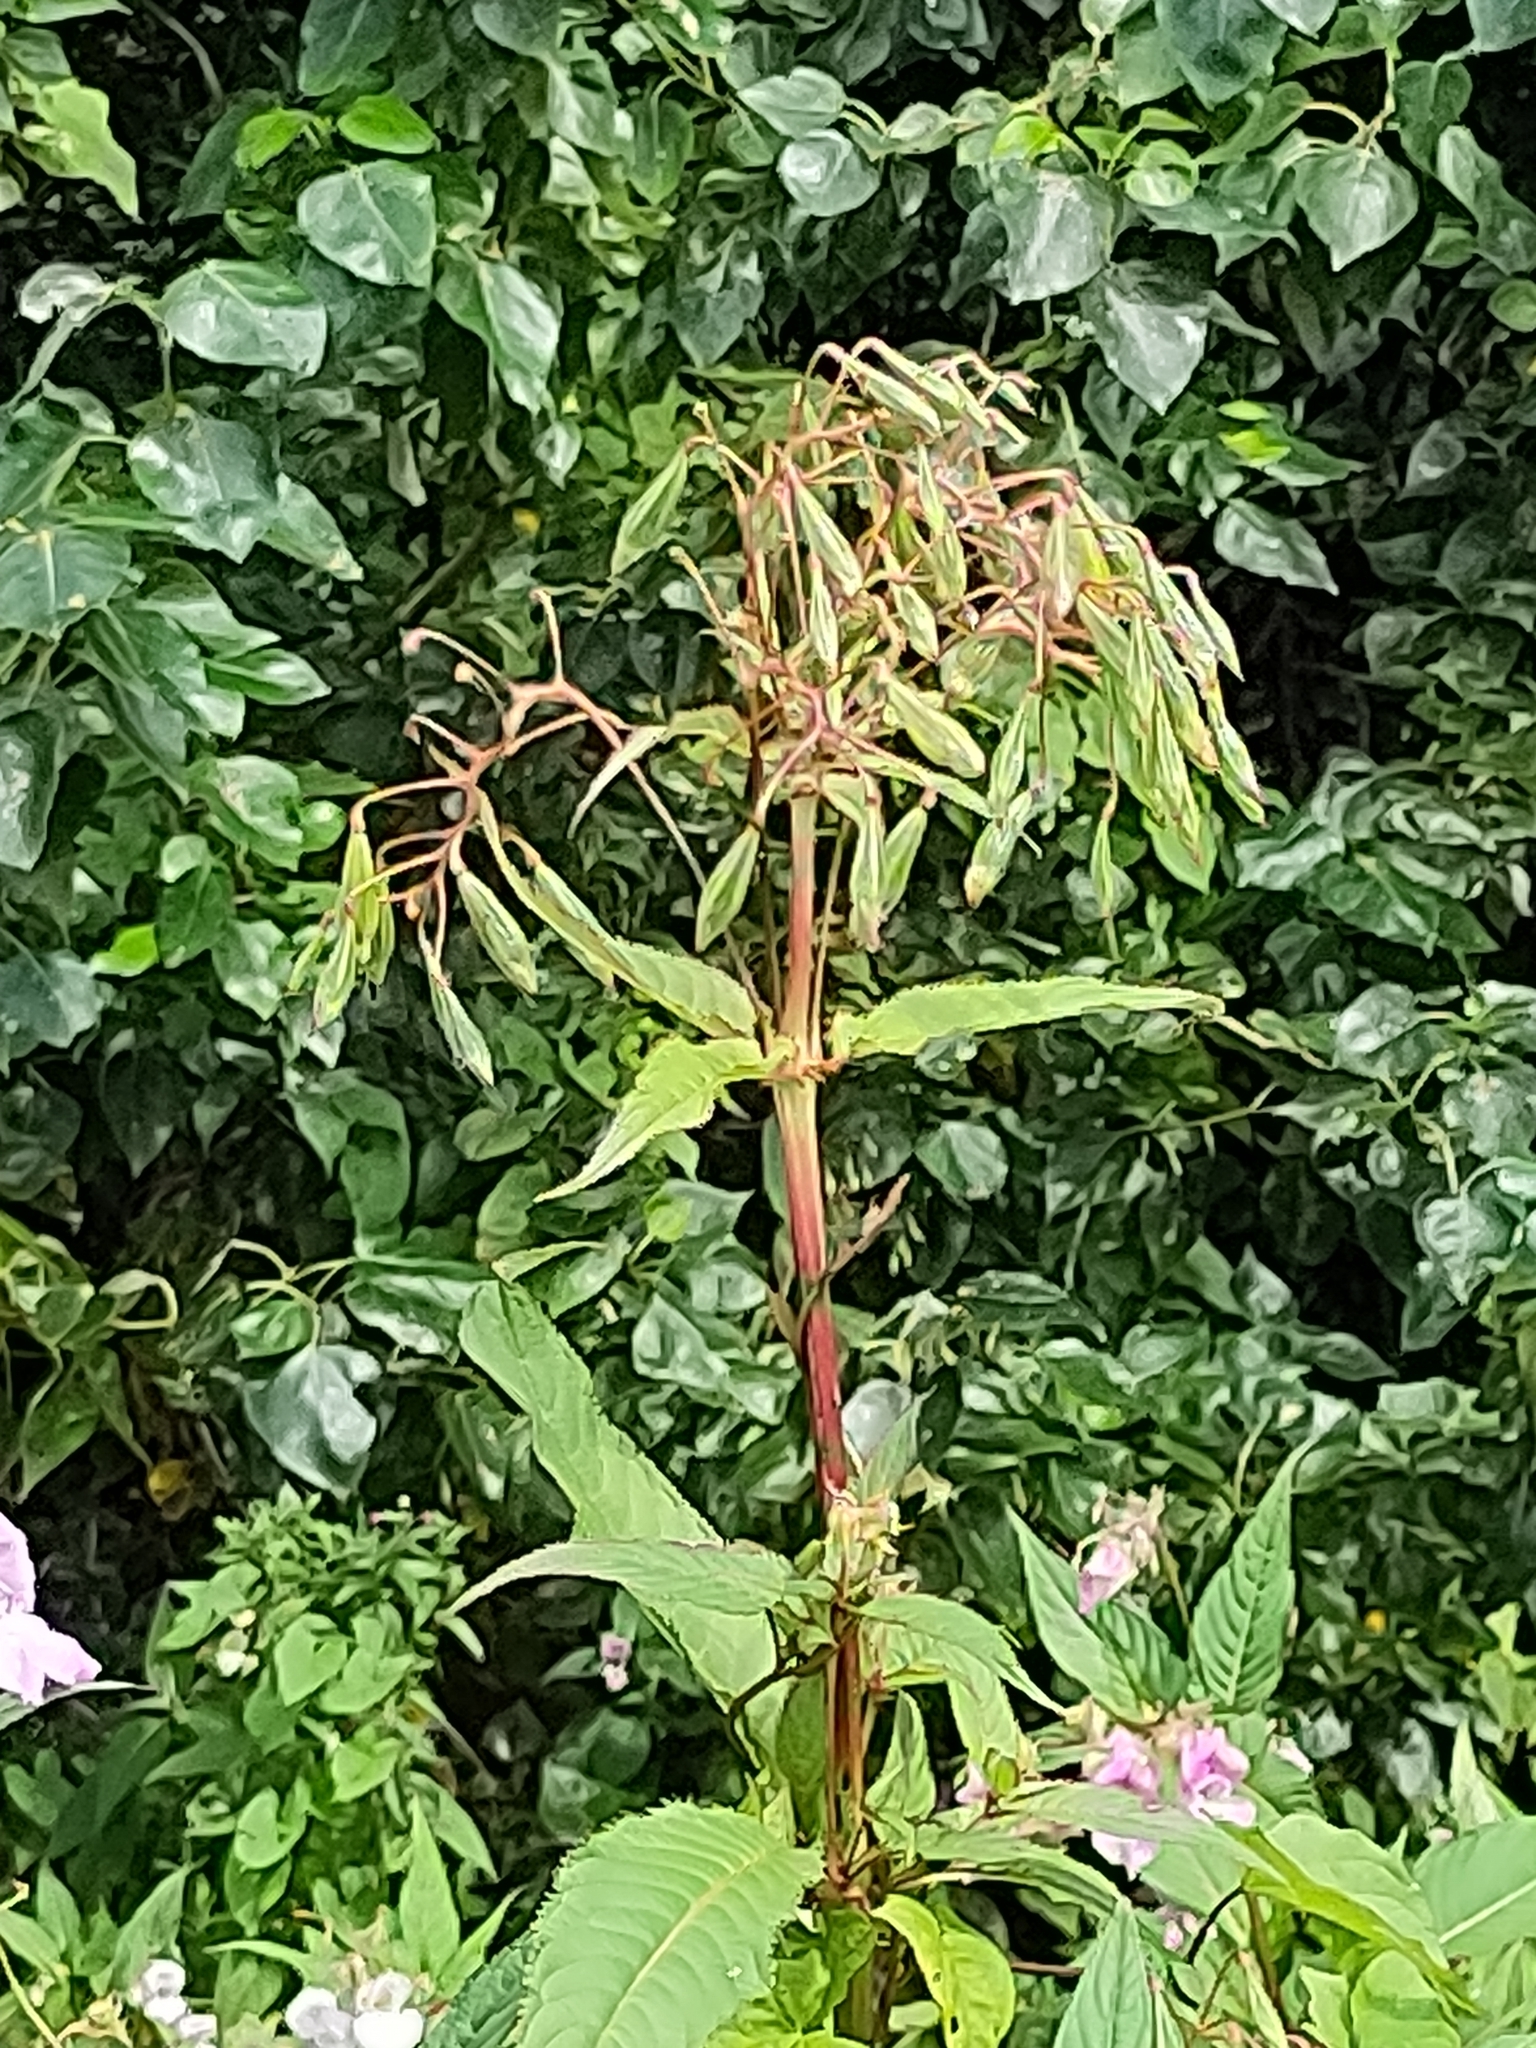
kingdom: Plantae
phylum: Tracheophyta
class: Magnoliopsida
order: Ericales
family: Balsaminaceae
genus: Impatiens
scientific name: Impatiens glandulifera
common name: Himalayan balsam
